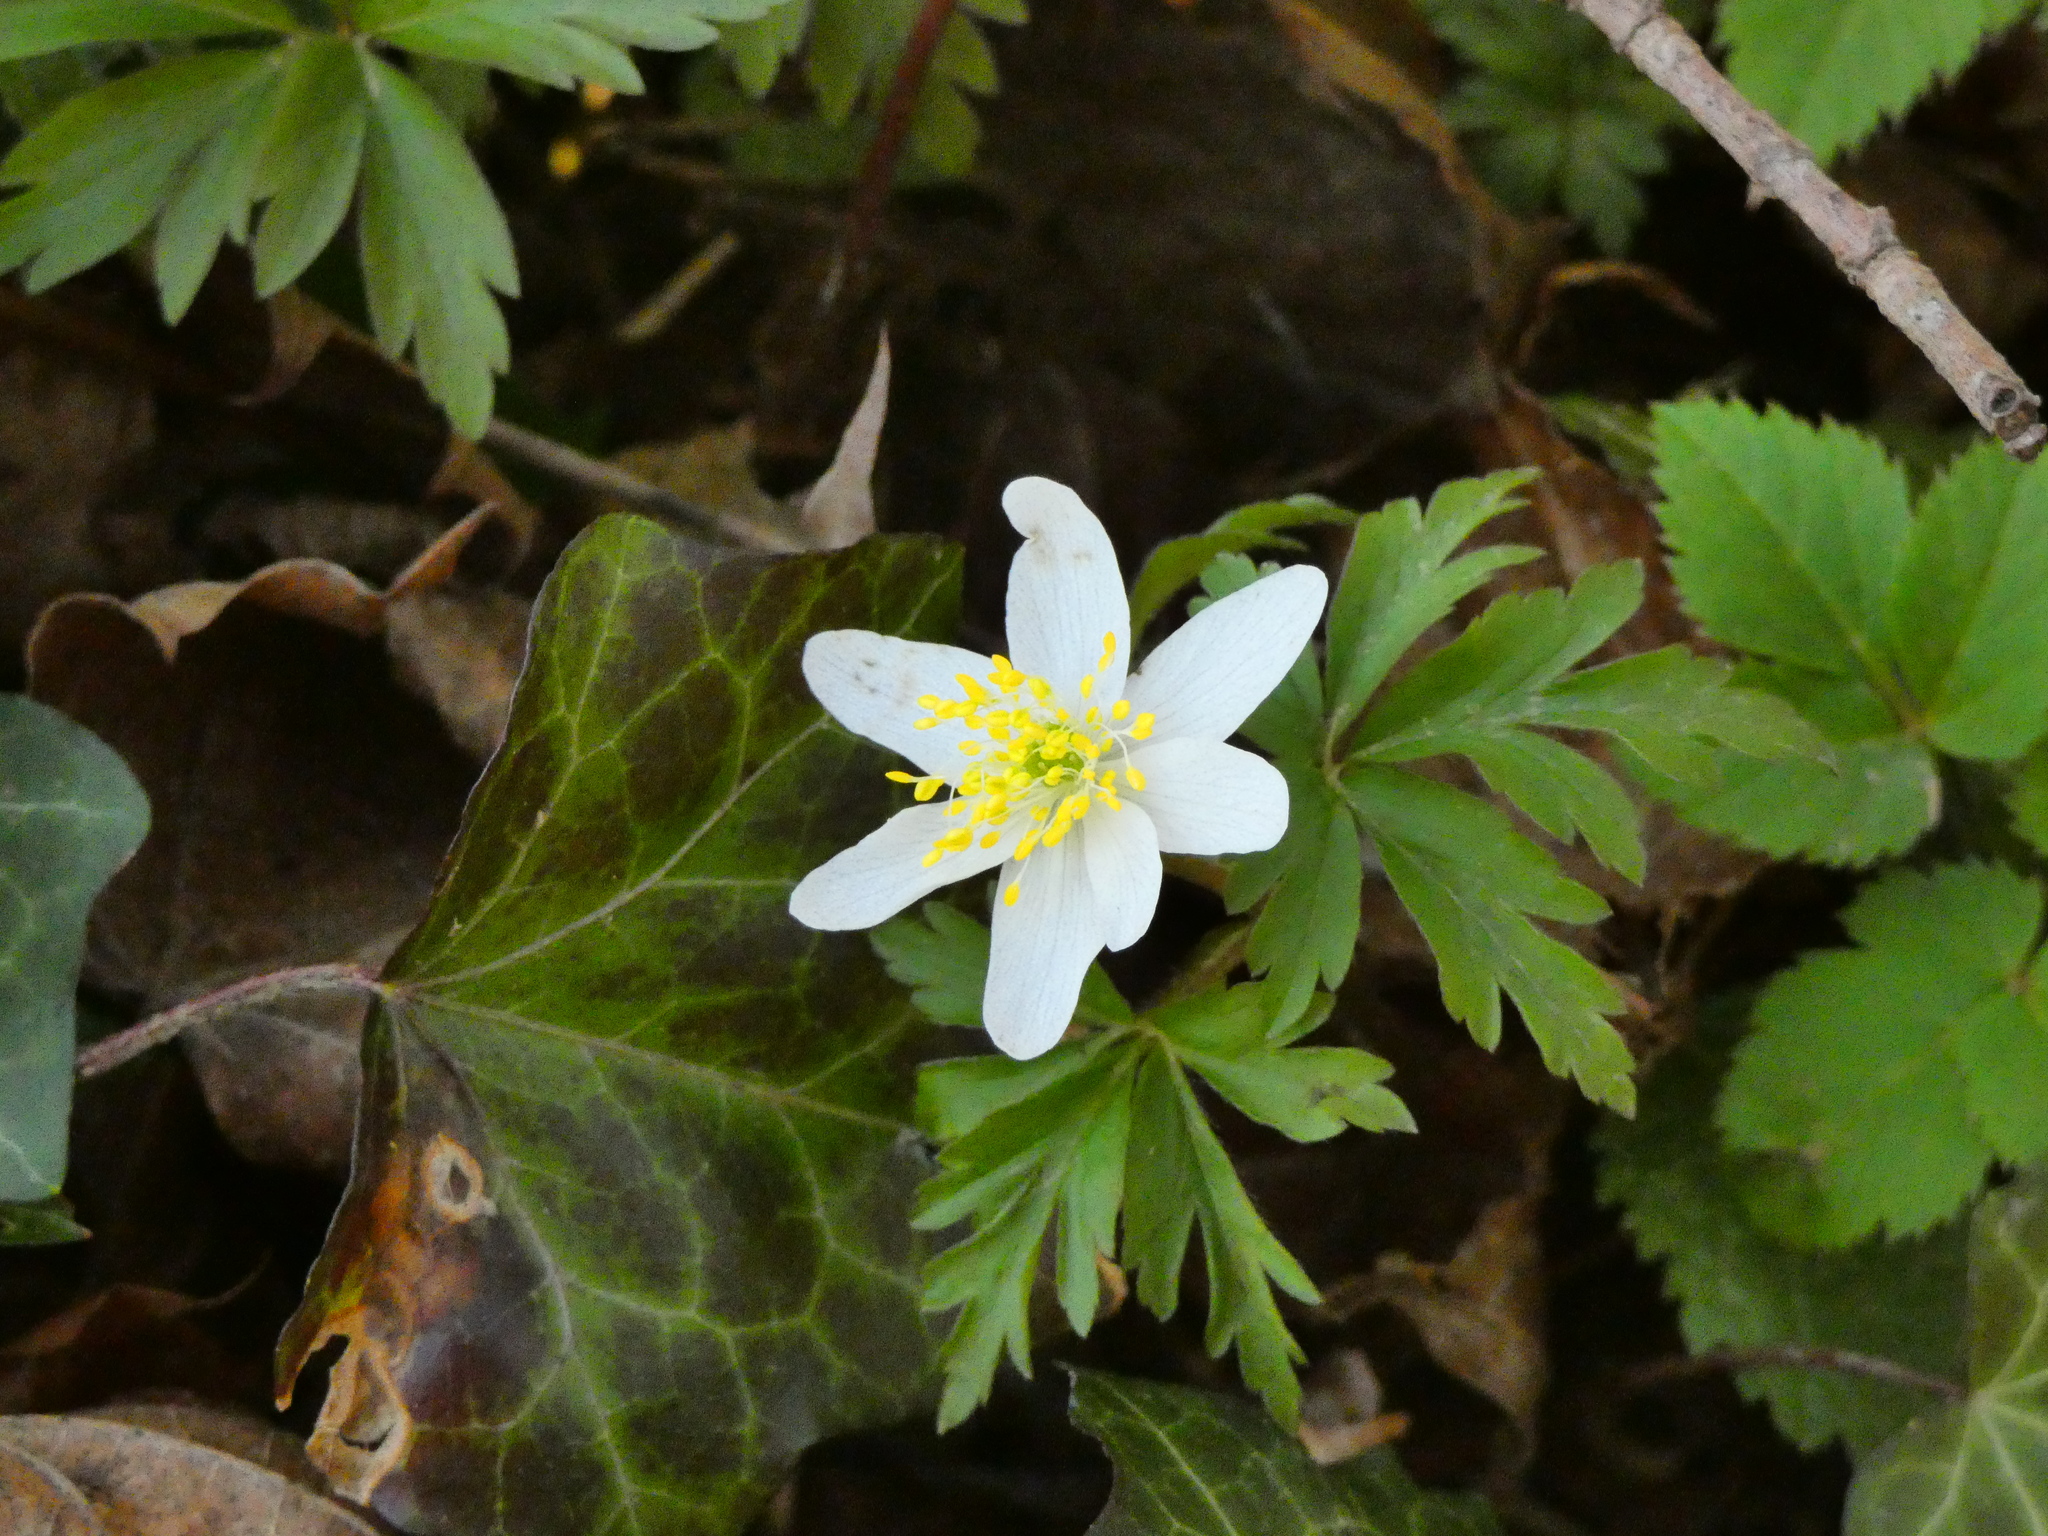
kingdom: Plantae
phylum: Tracheophyta
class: Magnoliopsida
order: Ranunculales
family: Ranunculaceae
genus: Anemone
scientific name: Anemone nemorosa
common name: Wood anemone
